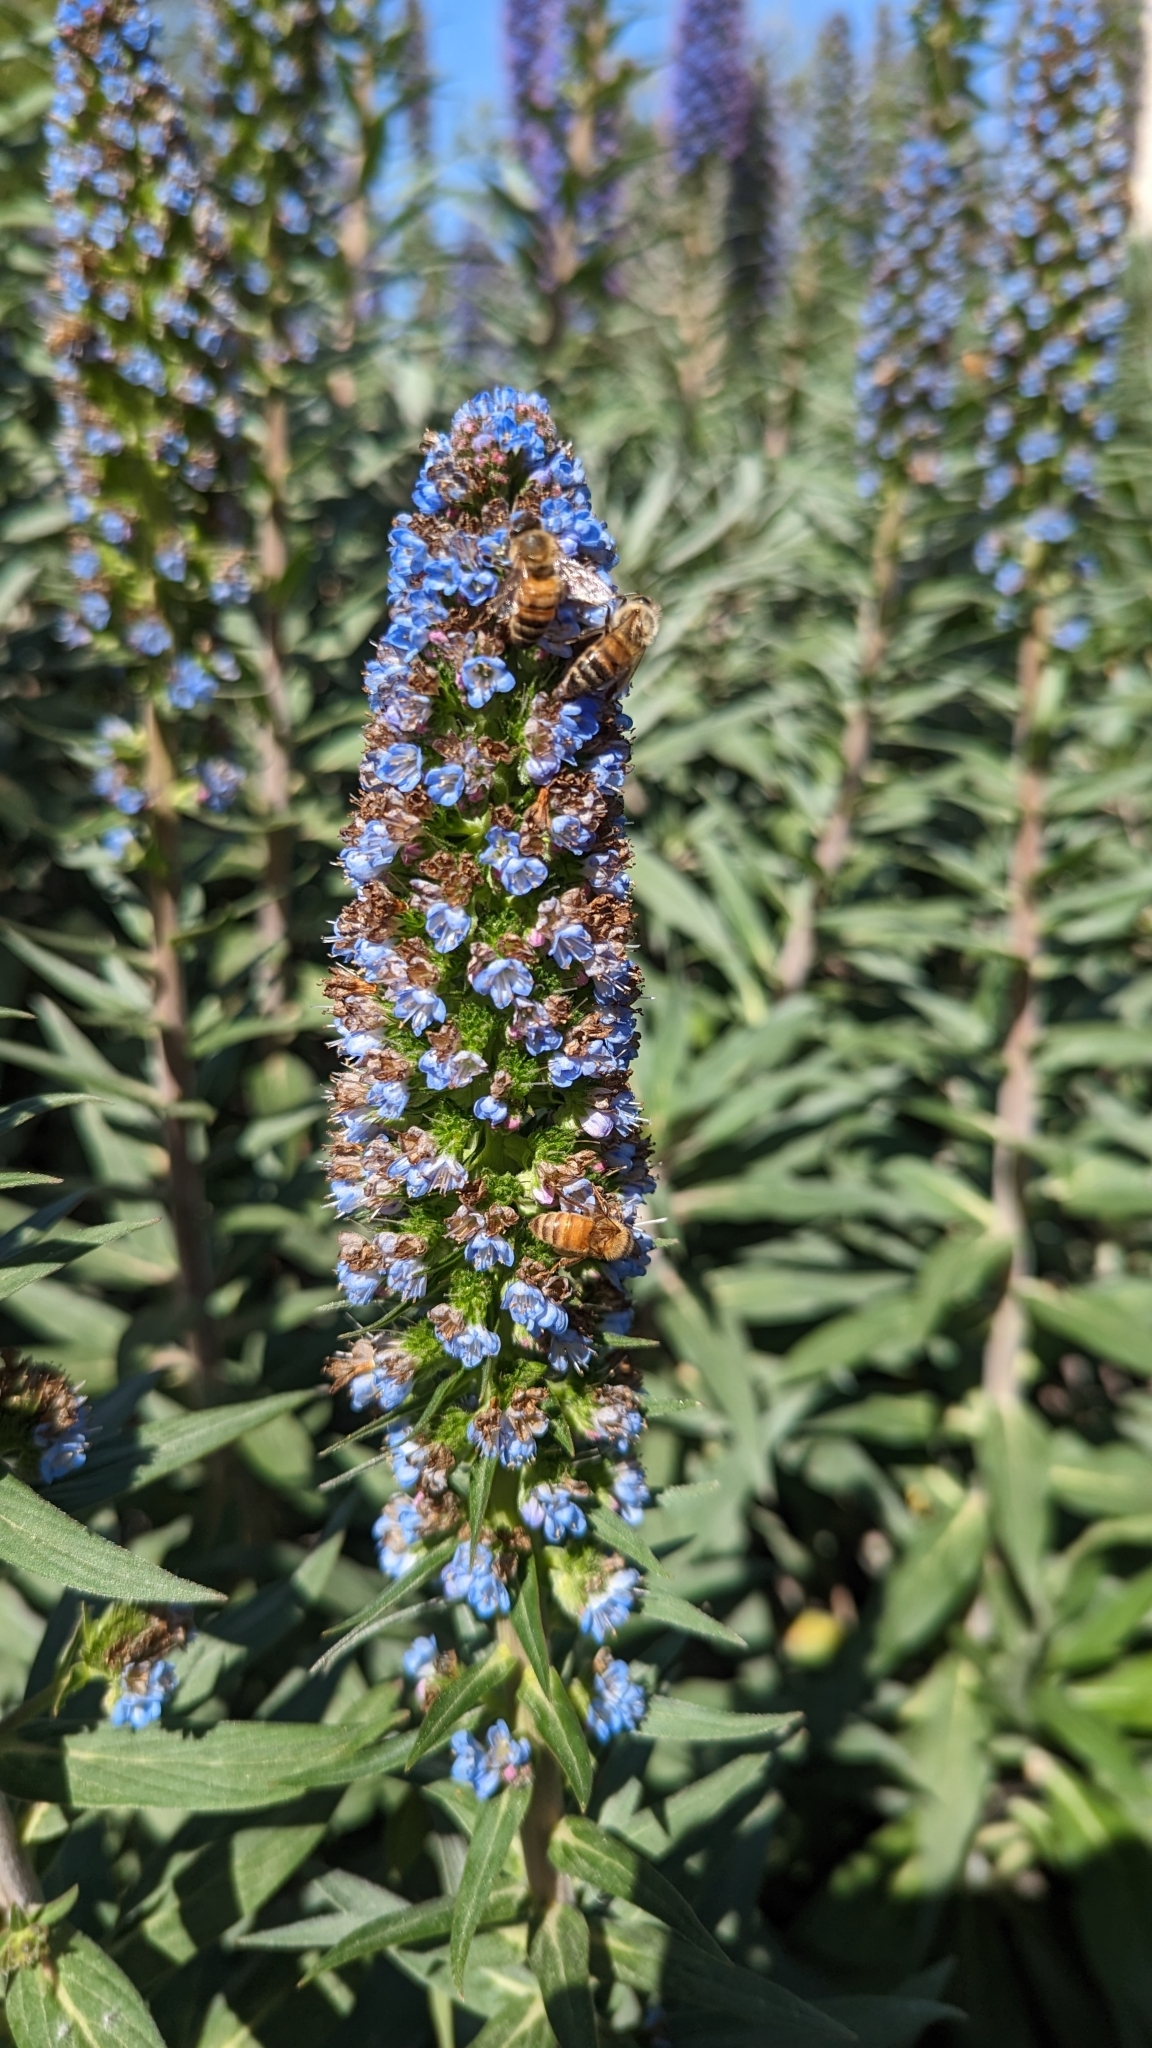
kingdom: Animalia
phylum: Arthropoda
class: Insecta
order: Hymenoptera
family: Apidae
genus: Apis
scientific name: Apis mellifera
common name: Honey bee
